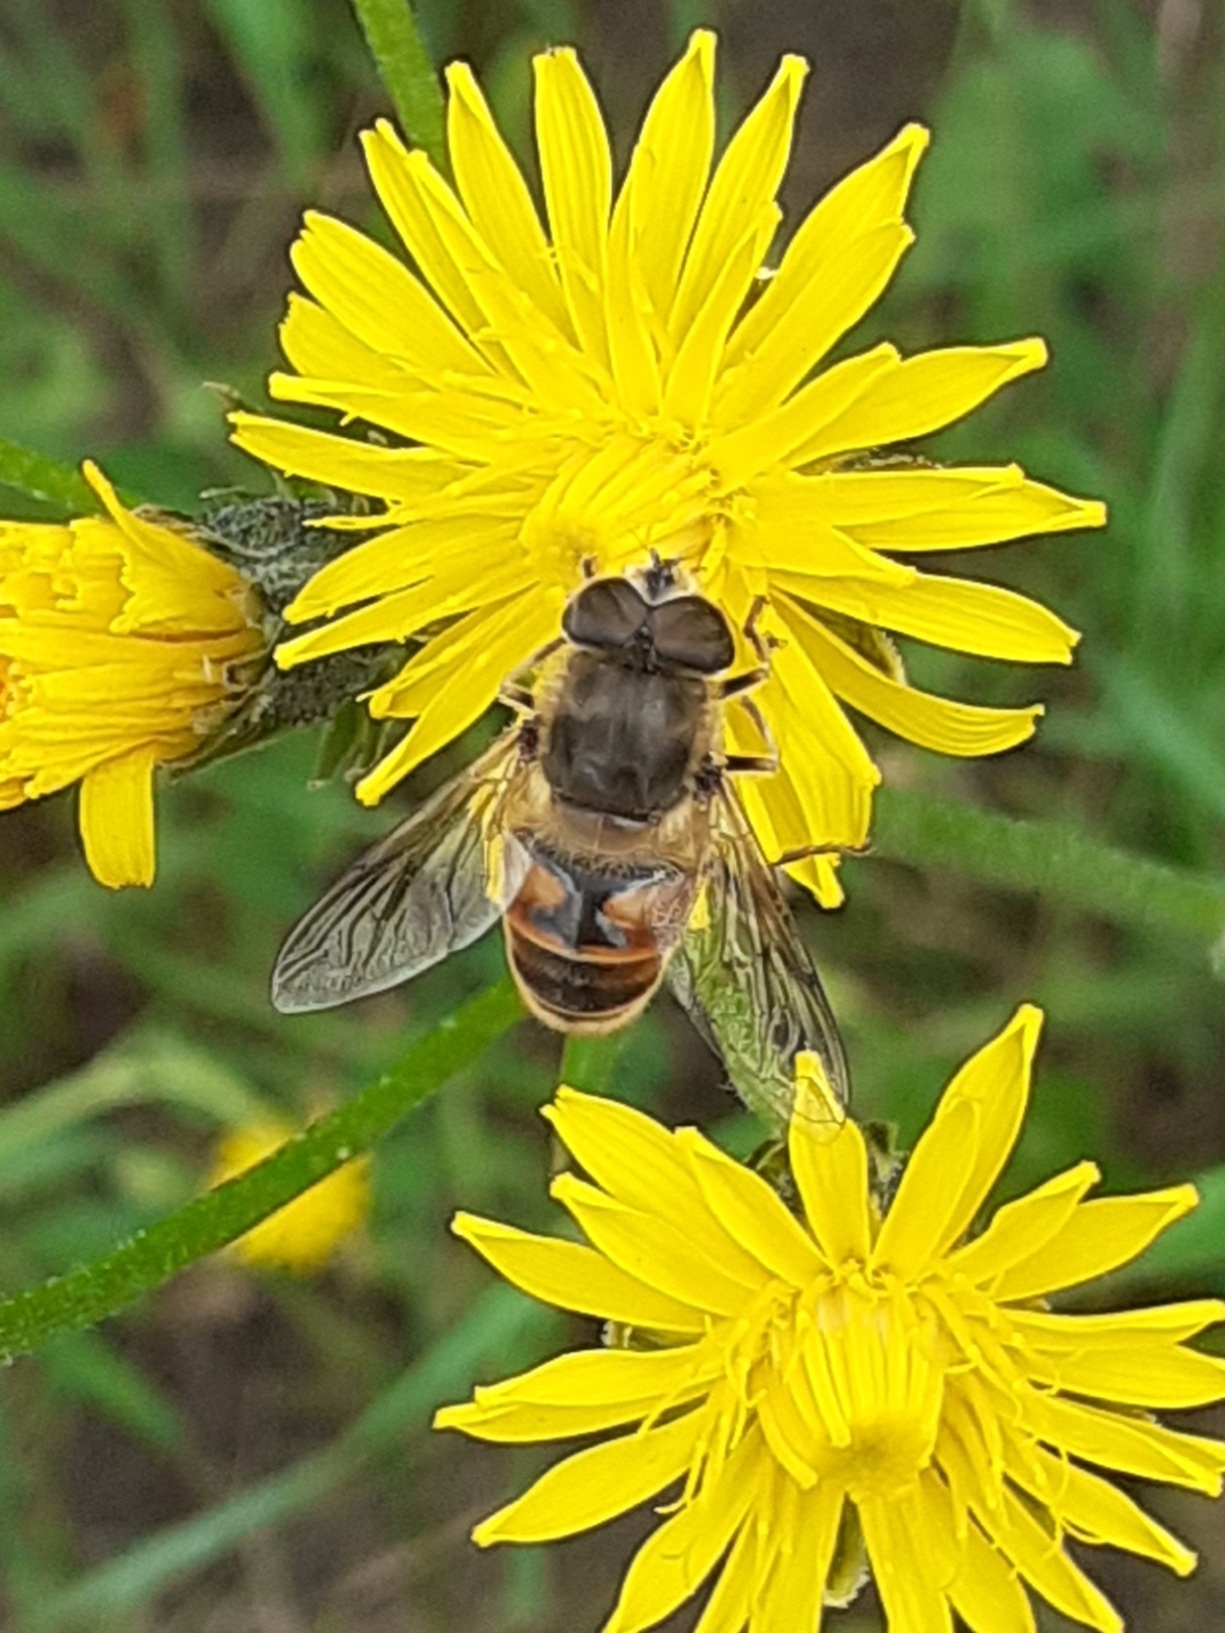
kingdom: Animalia
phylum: Arthropoda
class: Insecta
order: Diptera
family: Syrphidae
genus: Eristalis
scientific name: Eristalis tenax
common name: Drone fly
